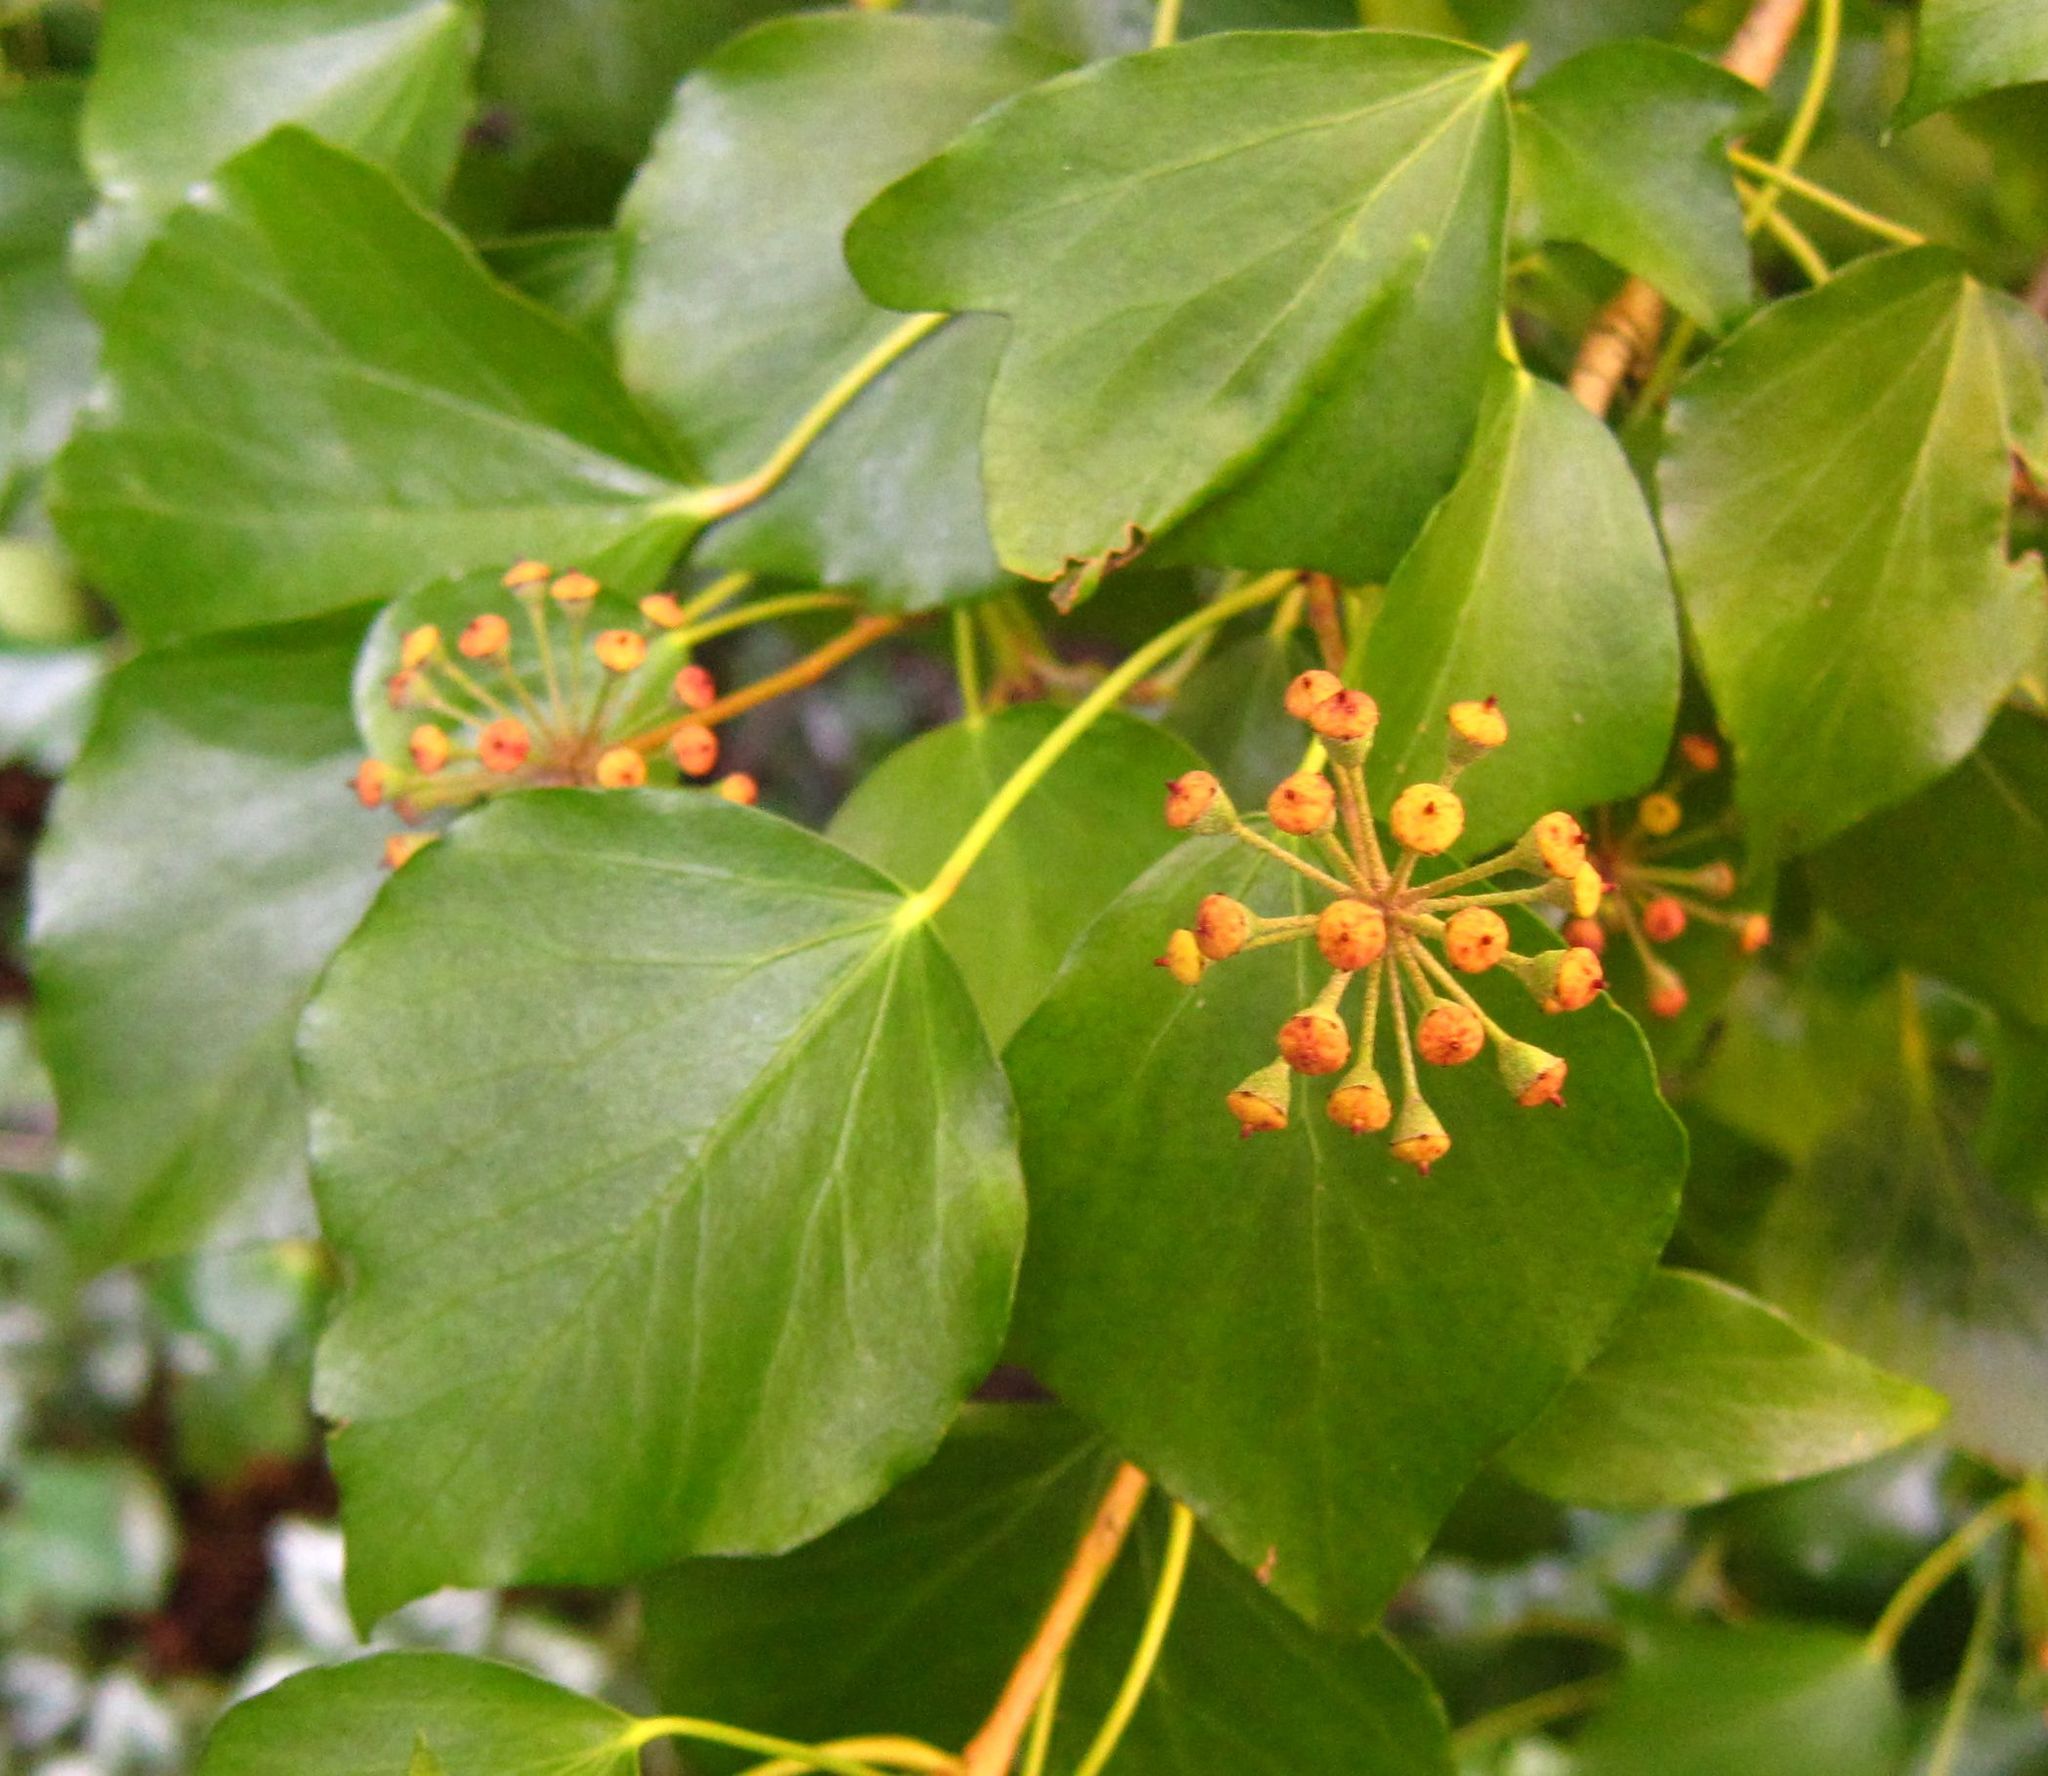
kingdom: Plantae
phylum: Tracheophyta
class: Magnoliopsida
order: Apiales
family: Araliaceae
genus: Hedera
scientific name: Hedera helix
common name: Ivy
